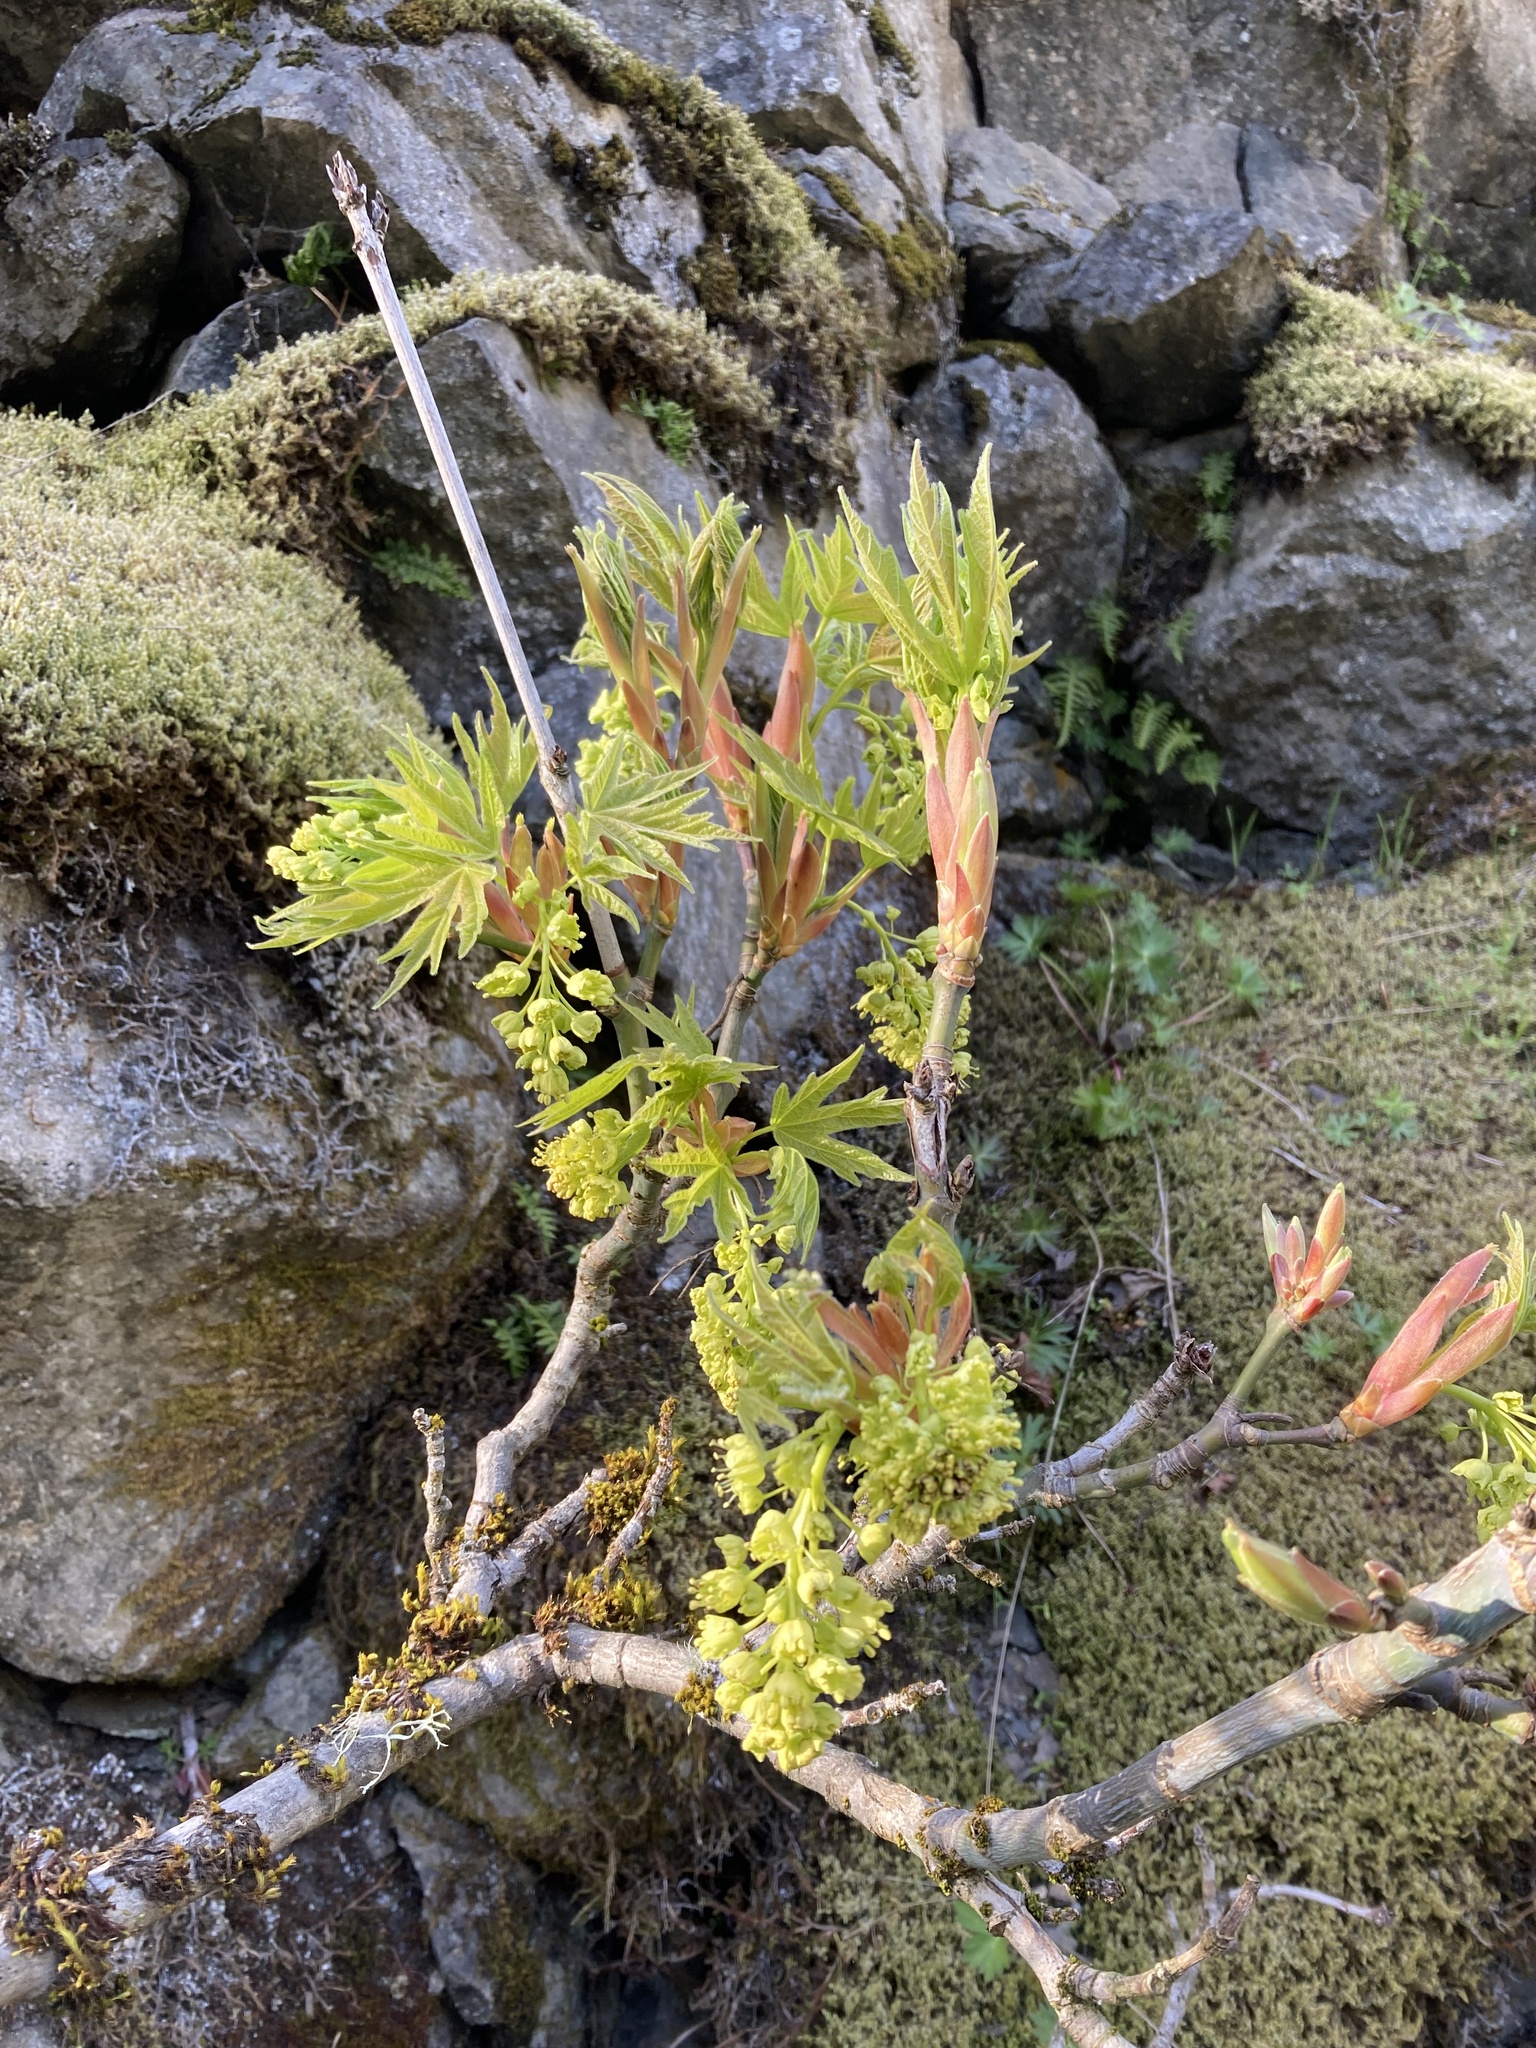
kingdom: Plantae
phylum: Tracheophyta
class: Magnoliopsida
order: Sapindales
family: Sapindaceae
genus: Acer
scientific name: Acer macrophyllum
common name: Oregon maple
